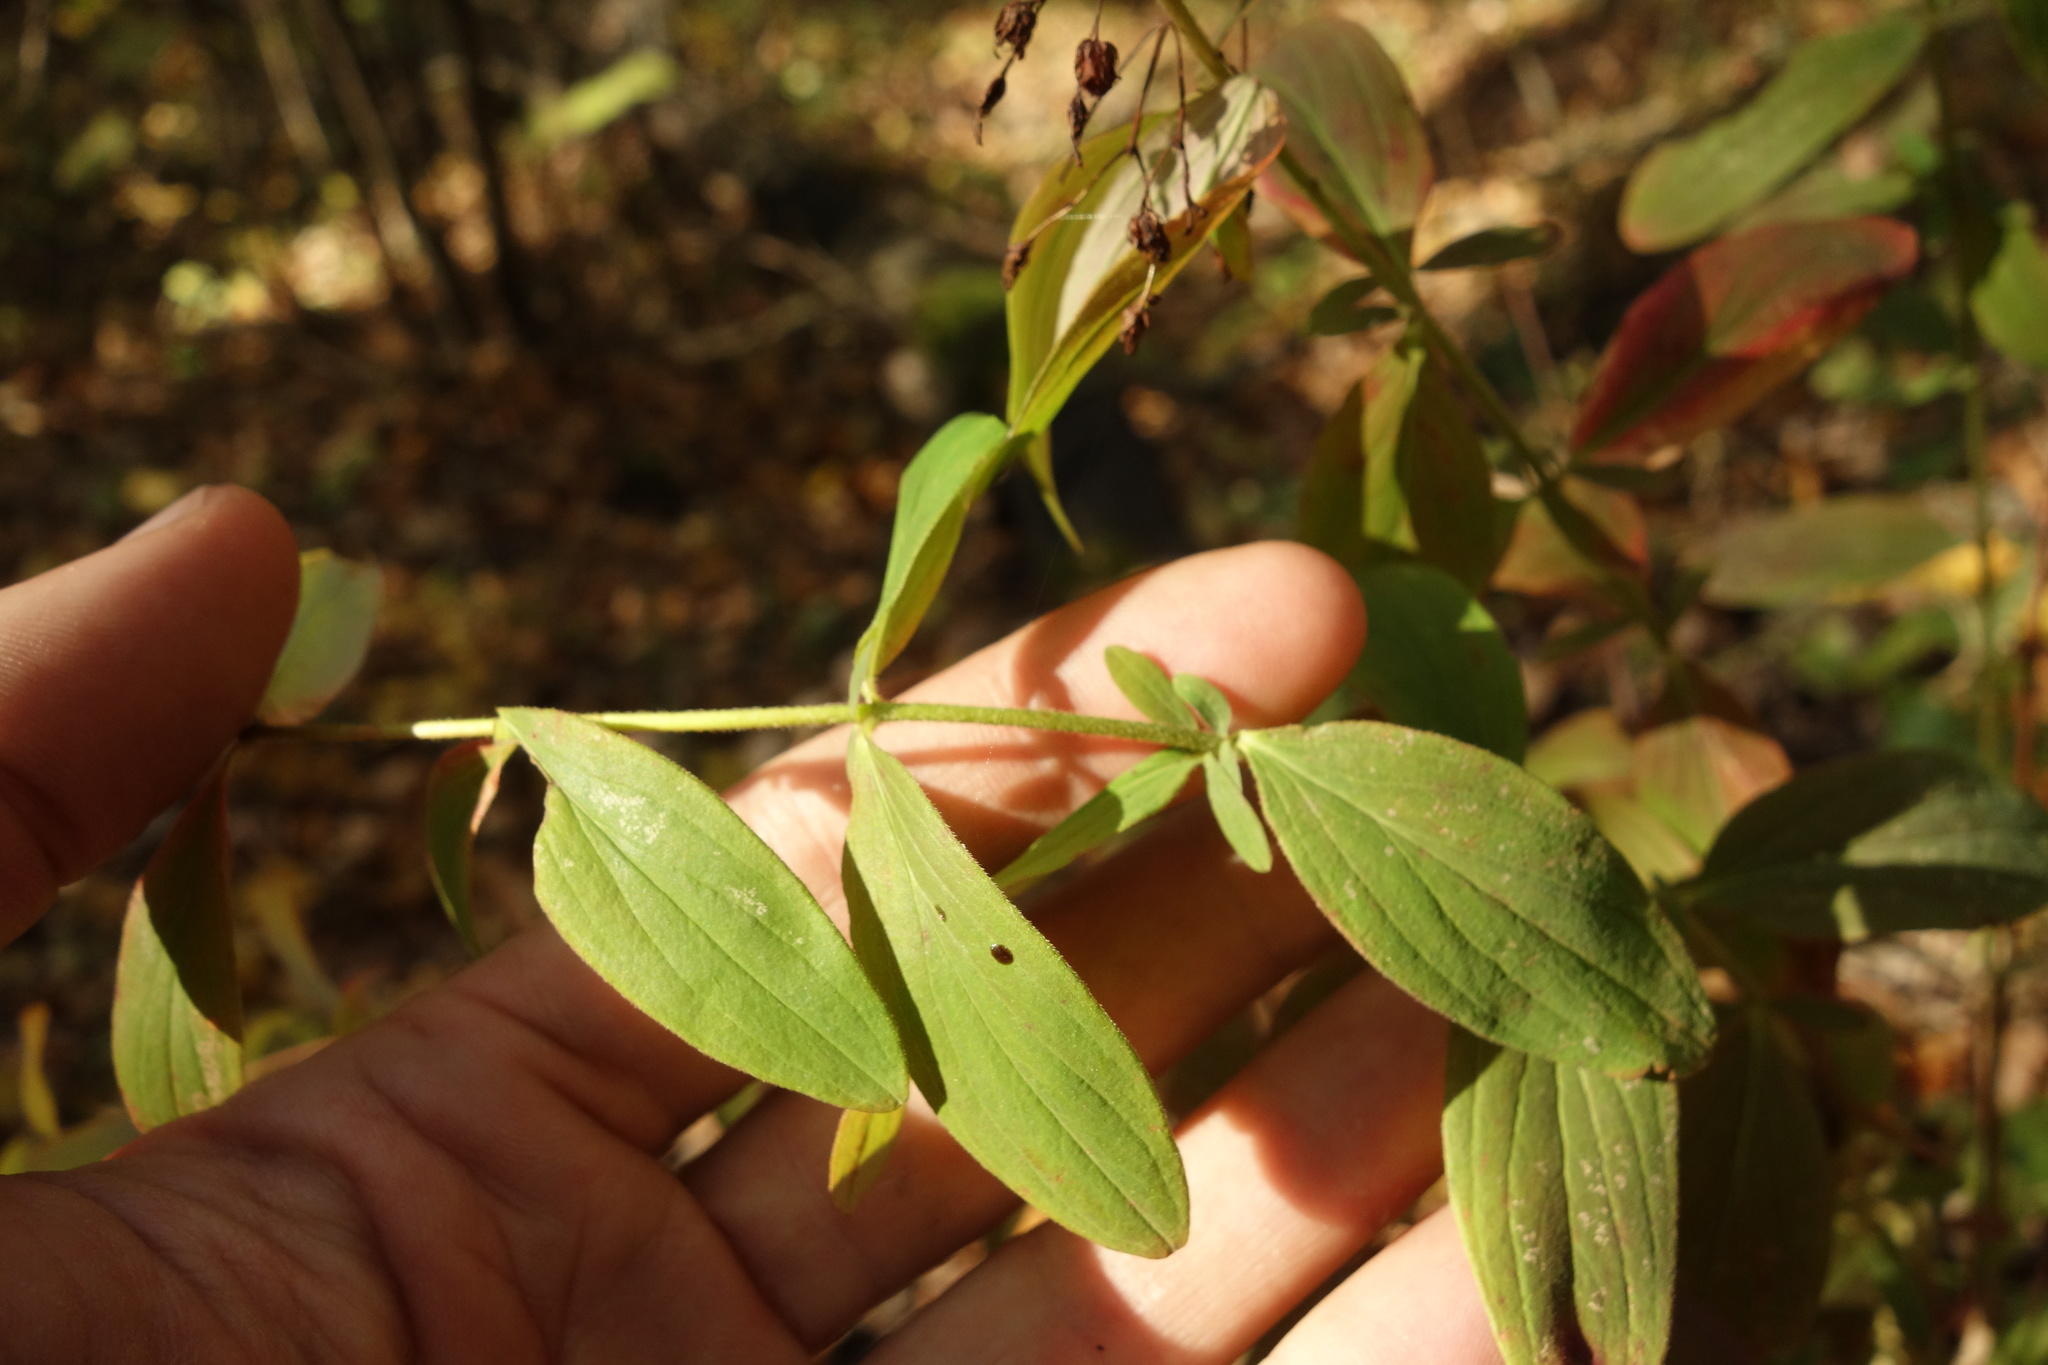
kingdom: Plantae
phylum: Tracheophyta
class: Magnoliopsida
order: Malpighiales
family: Hypericaceae
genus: Hypericum
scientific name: Hypericum hirsutum
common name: Hairy st. john's-wort
